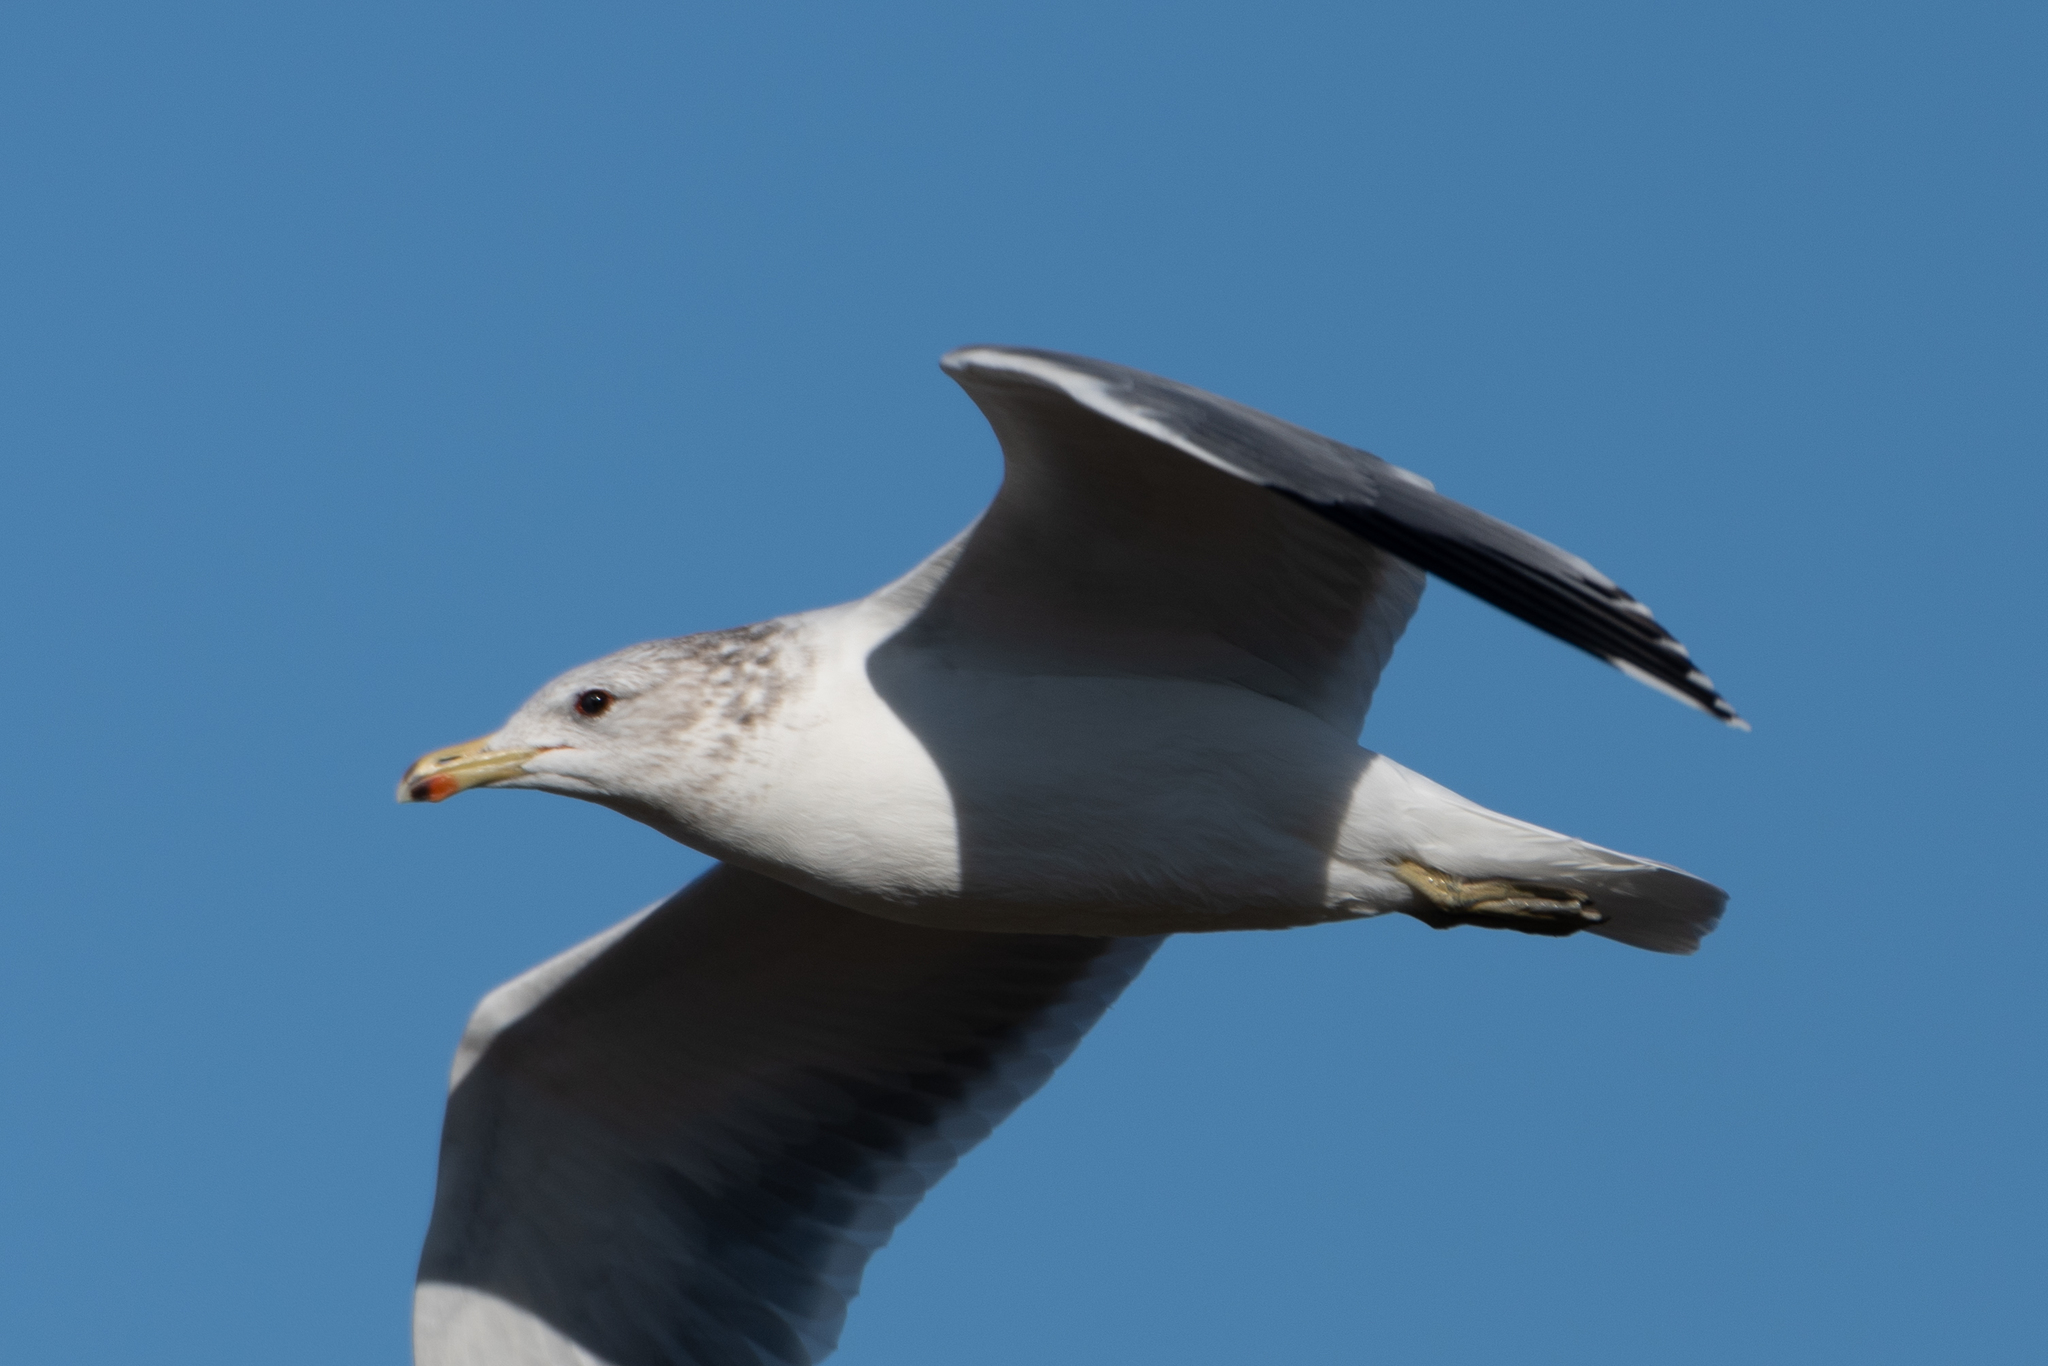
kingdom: Animalia
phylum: Chordata
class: Aves
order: Charadriiformes
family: Laridae
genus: Larus
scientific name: Larus californicus
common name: California gull
